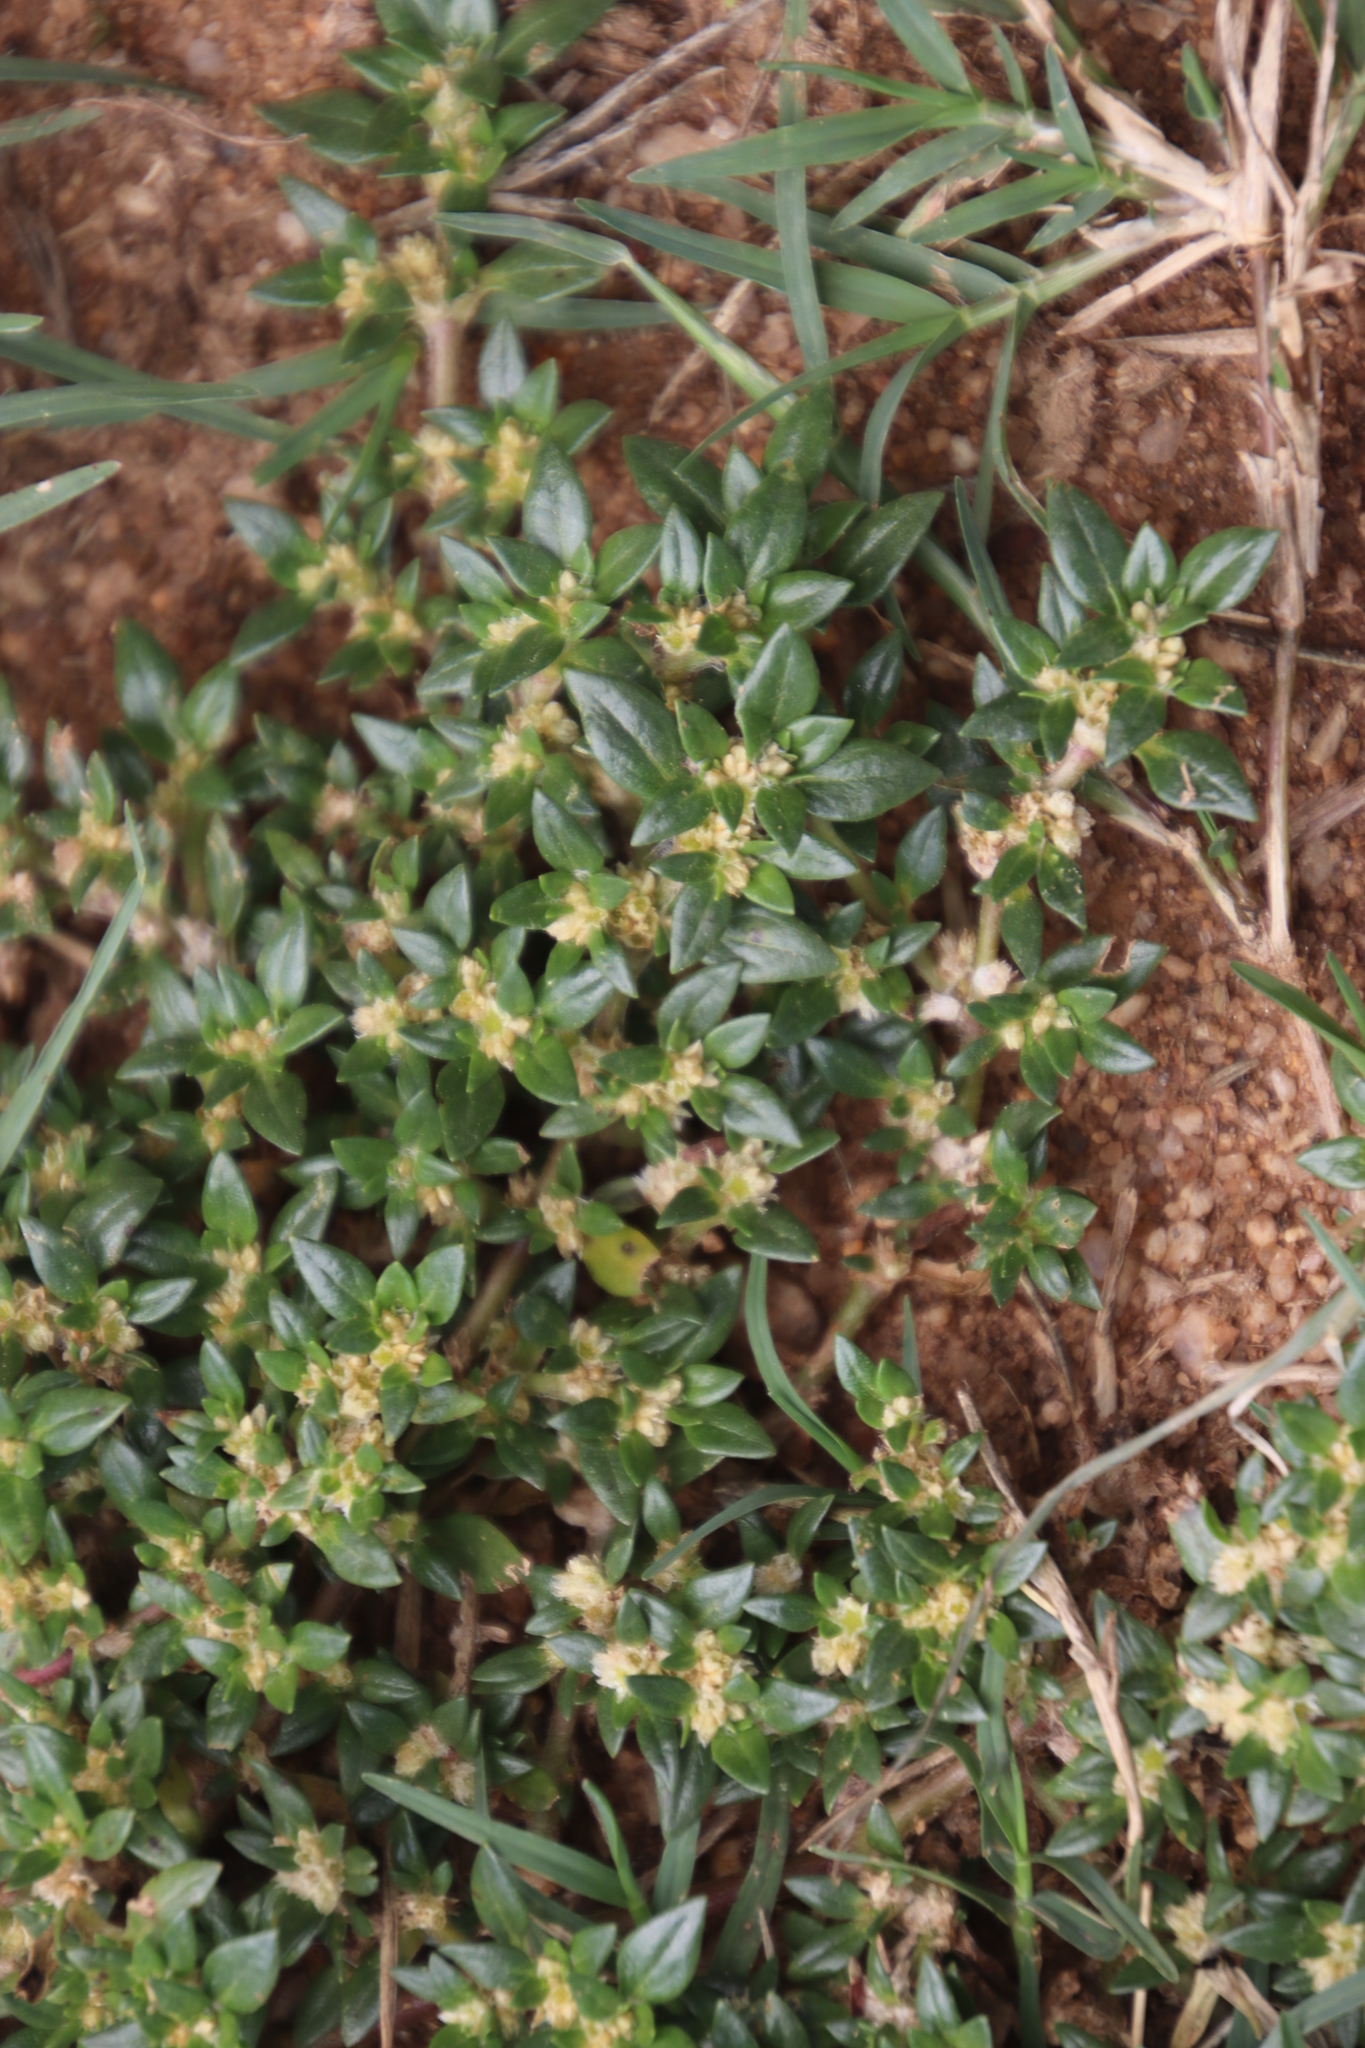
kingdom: Plantae
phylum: Tracheophyta
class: Magnoliopsida
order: Caryophyllales
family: Amaranthaceae
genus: Guilleminea
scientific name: Guilleminea densa
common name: Small matweed
